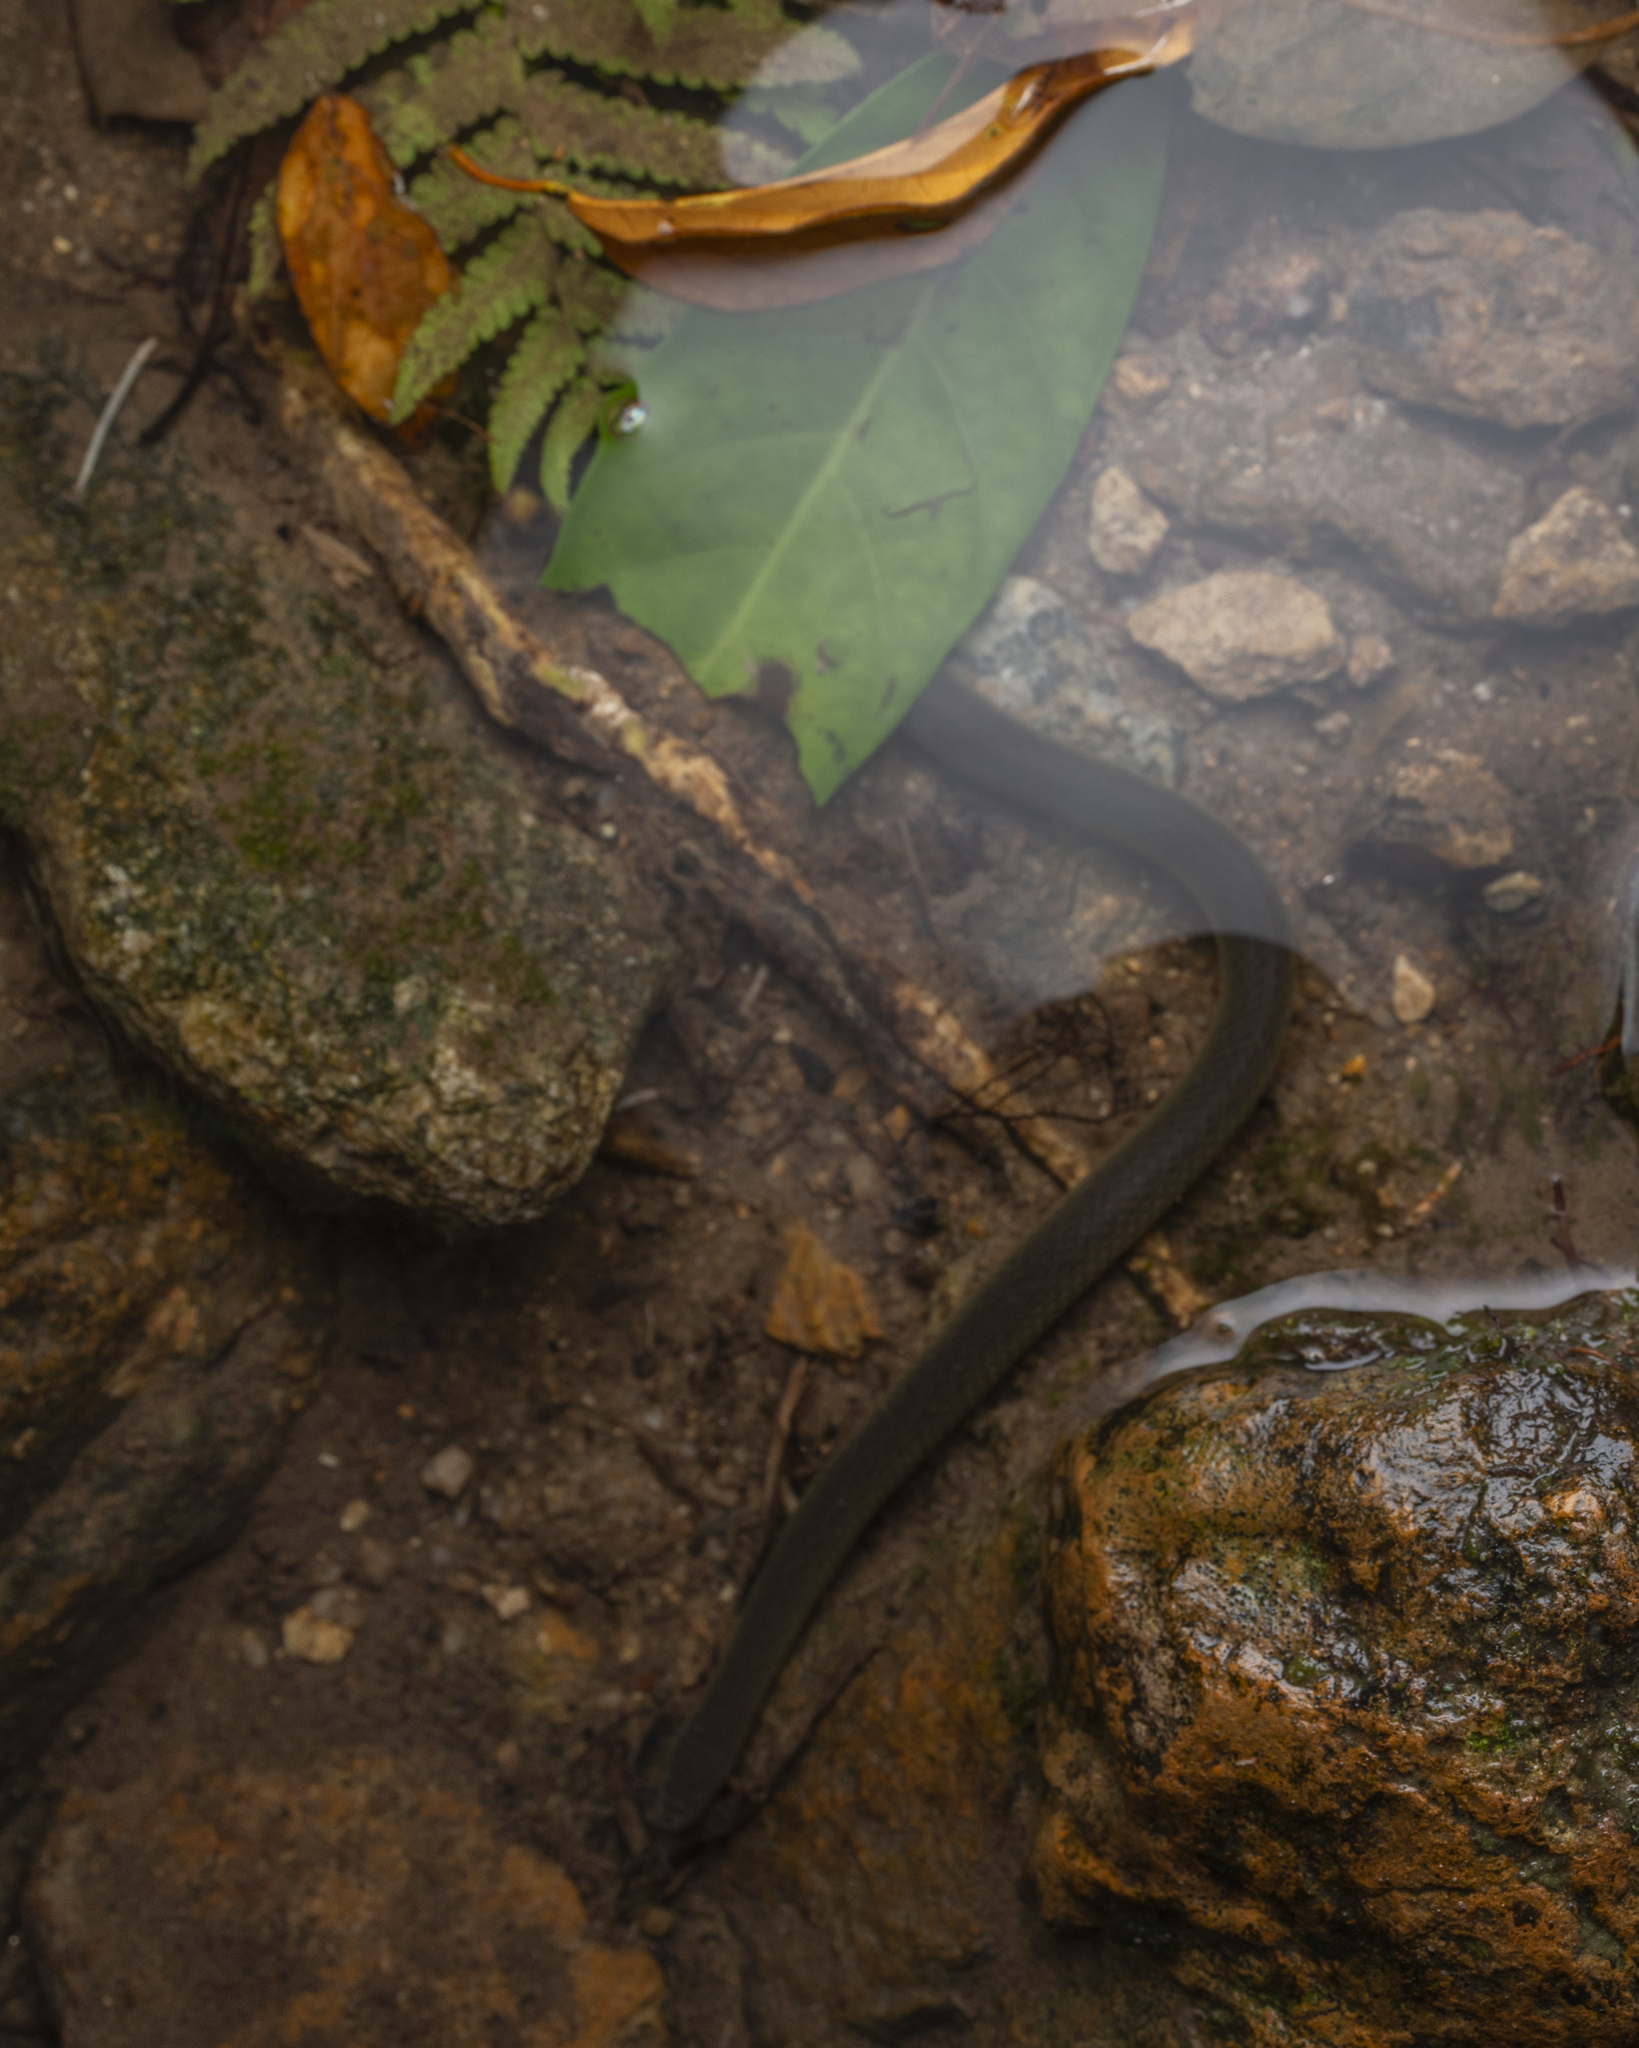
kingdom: Animalia
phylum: Chordata
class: Squamata
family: Colubridae
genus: Opisthotropis
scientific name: Opisthotropis andersonii
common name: Anderson's mountain keelback
